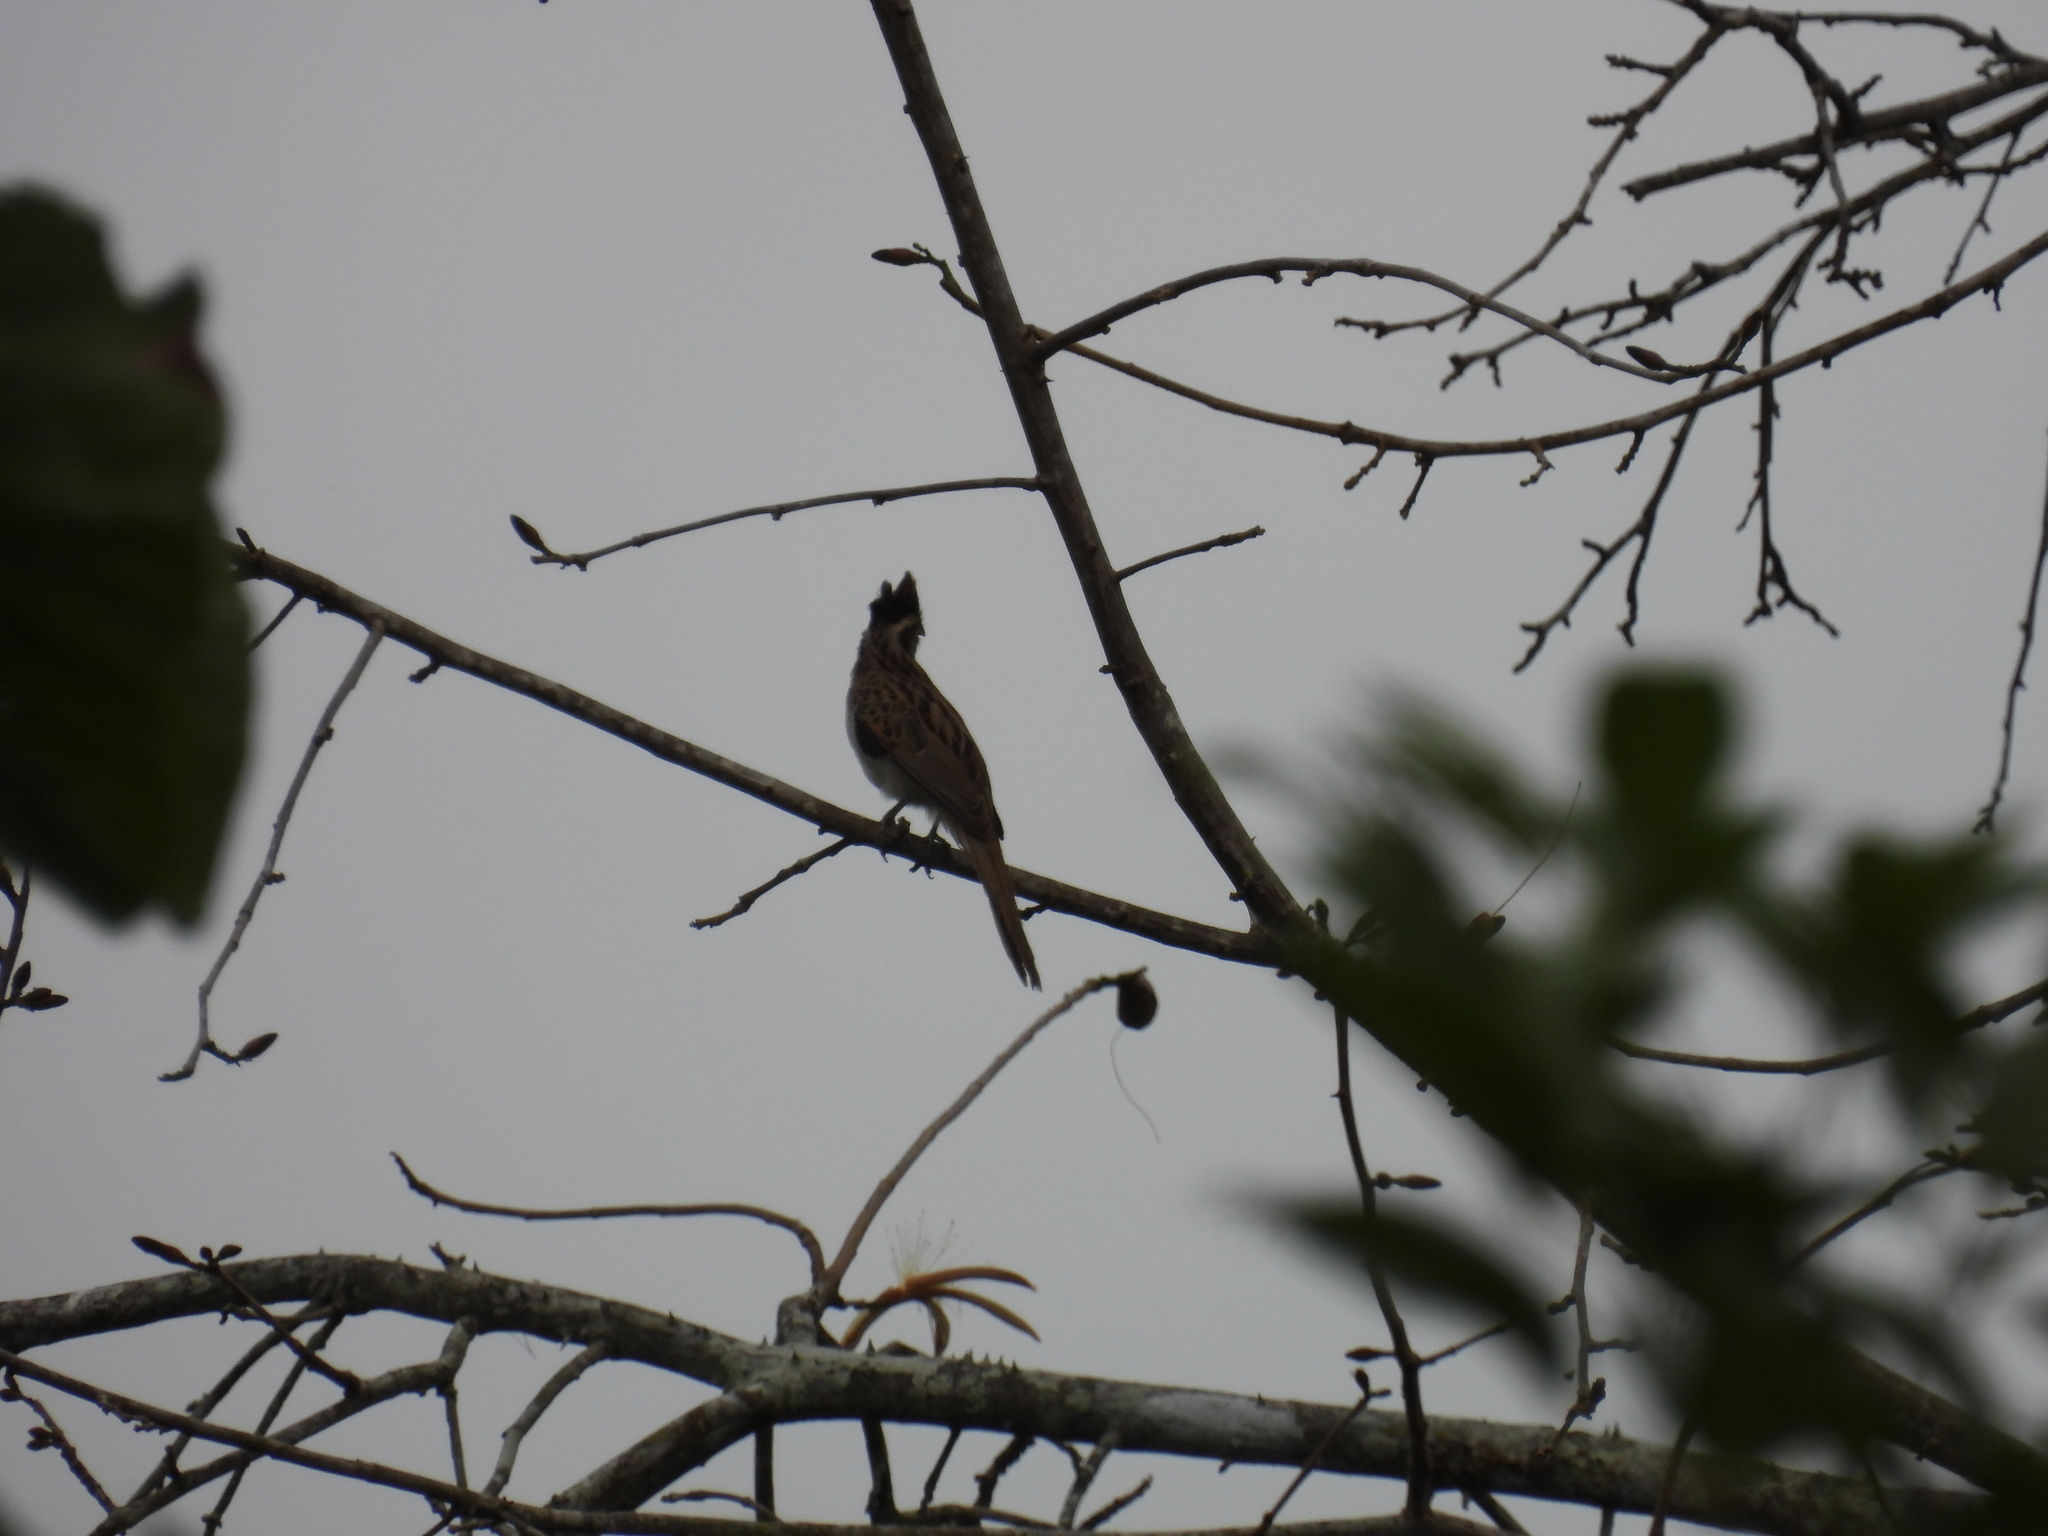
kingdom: Animalia
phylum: Chordata
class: Aves
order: Cuculiformes
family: Cuculidae
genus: Tapera
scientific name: Tapera naevia
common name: Striped cuckoo
